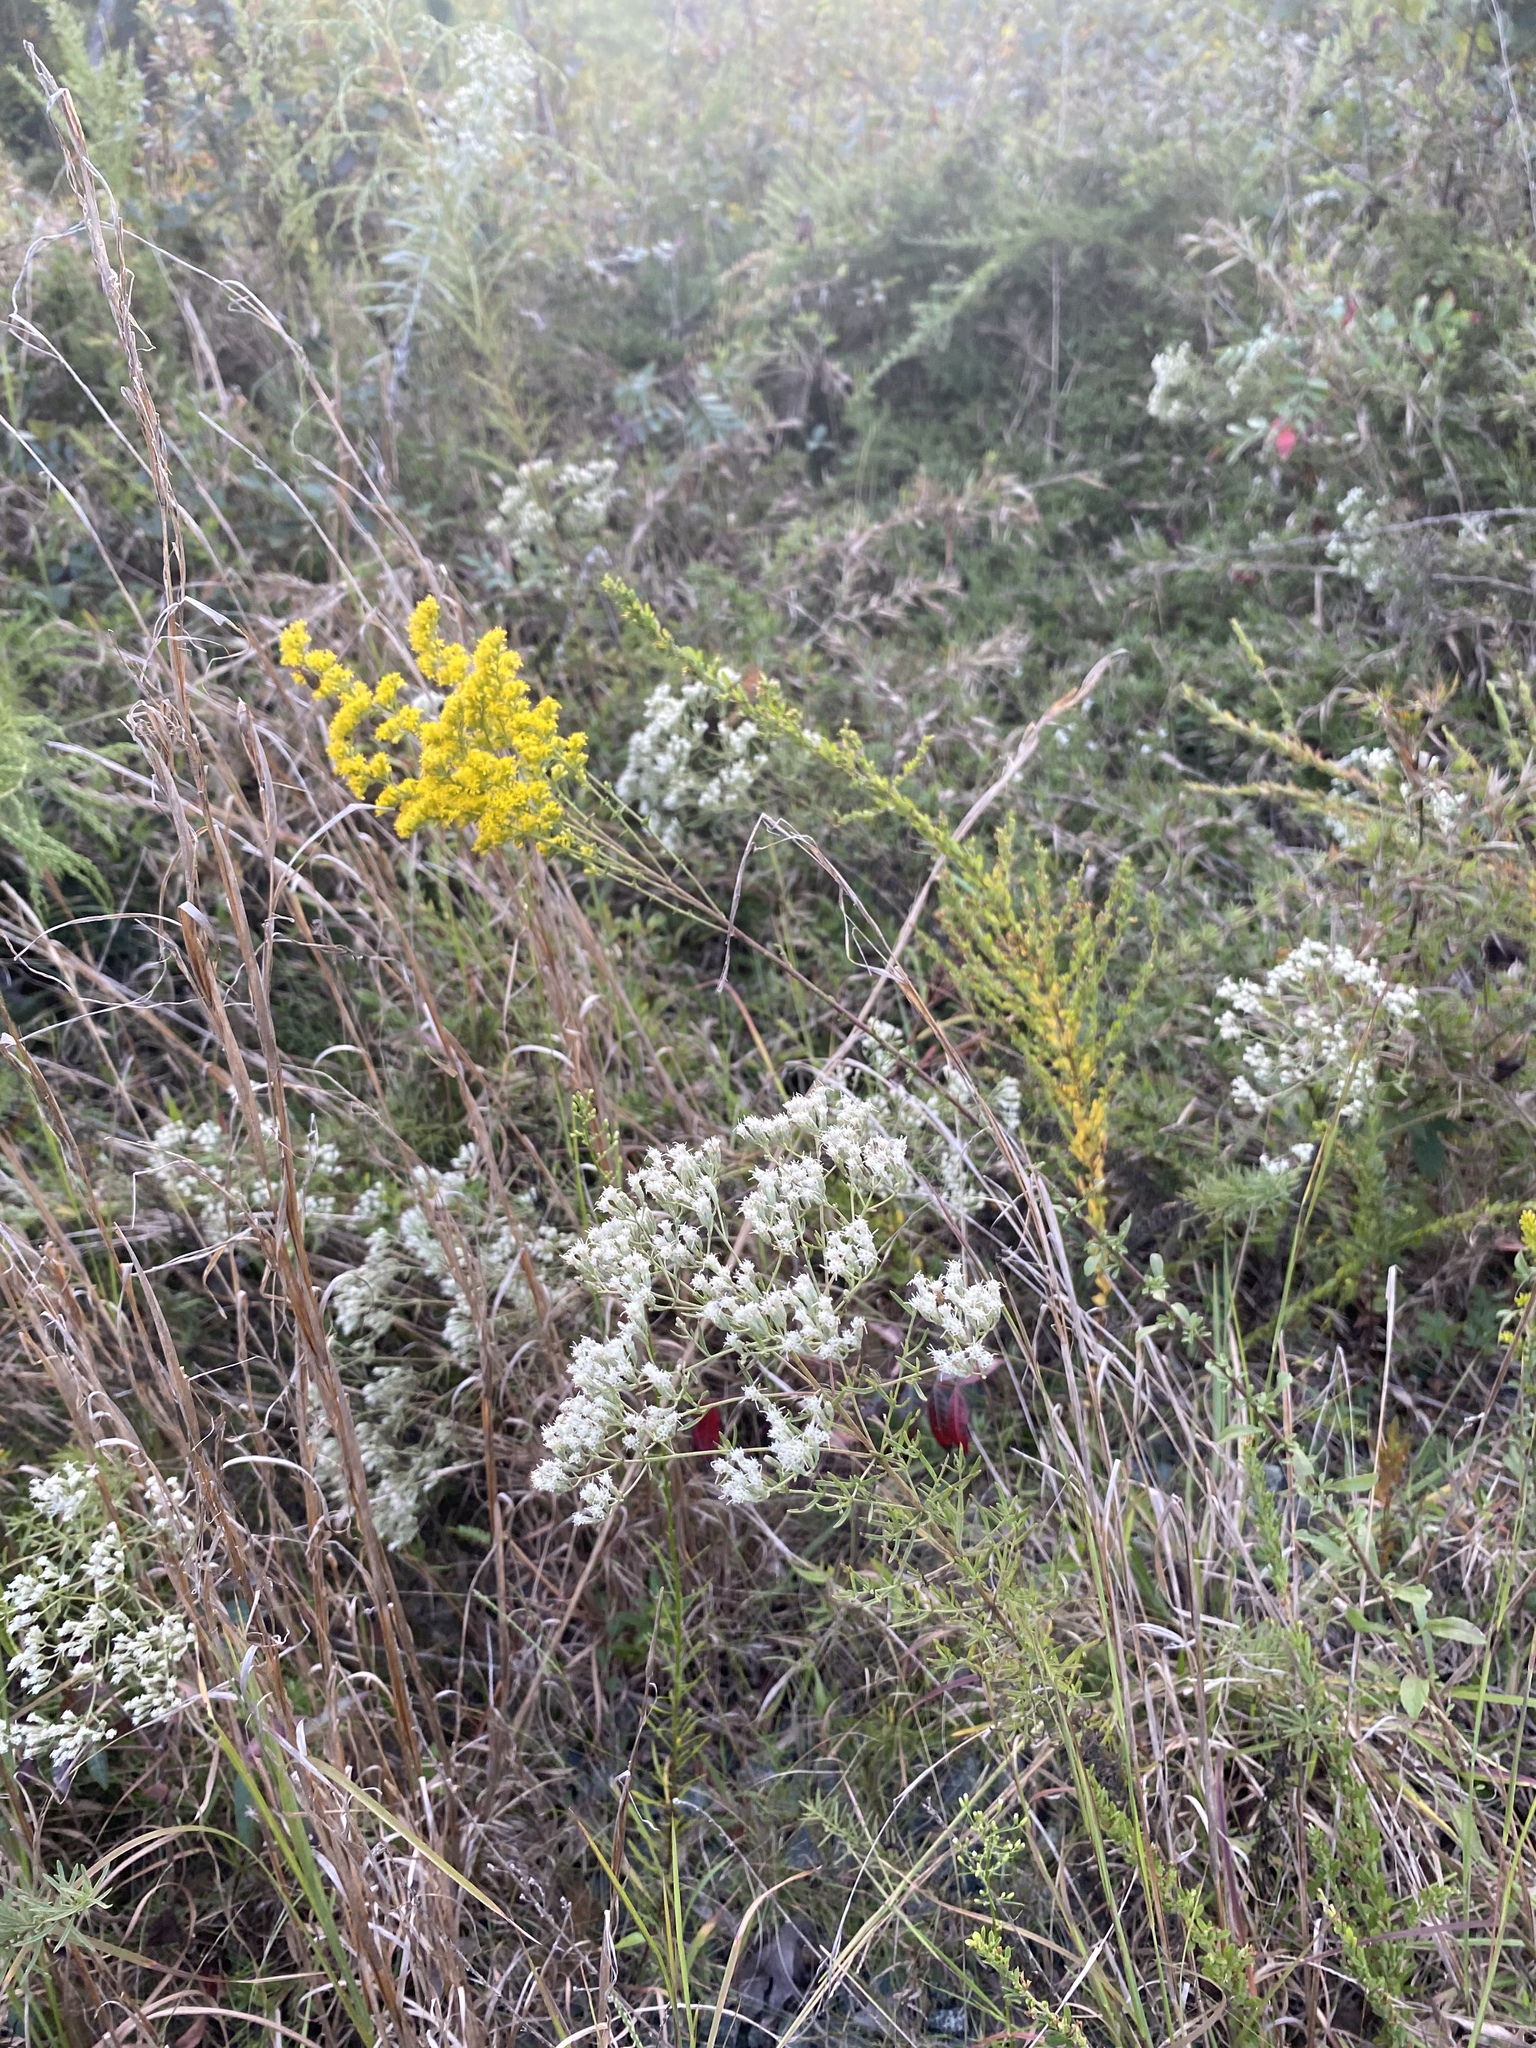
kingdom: Plantae
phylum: Tracheophyta
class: Magnoliopsida
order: Asterales
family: Asteraceae
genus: Eupatorium
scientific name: Eupatorium hyssopifolium
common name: Hyssop-leaf thoroughwort
